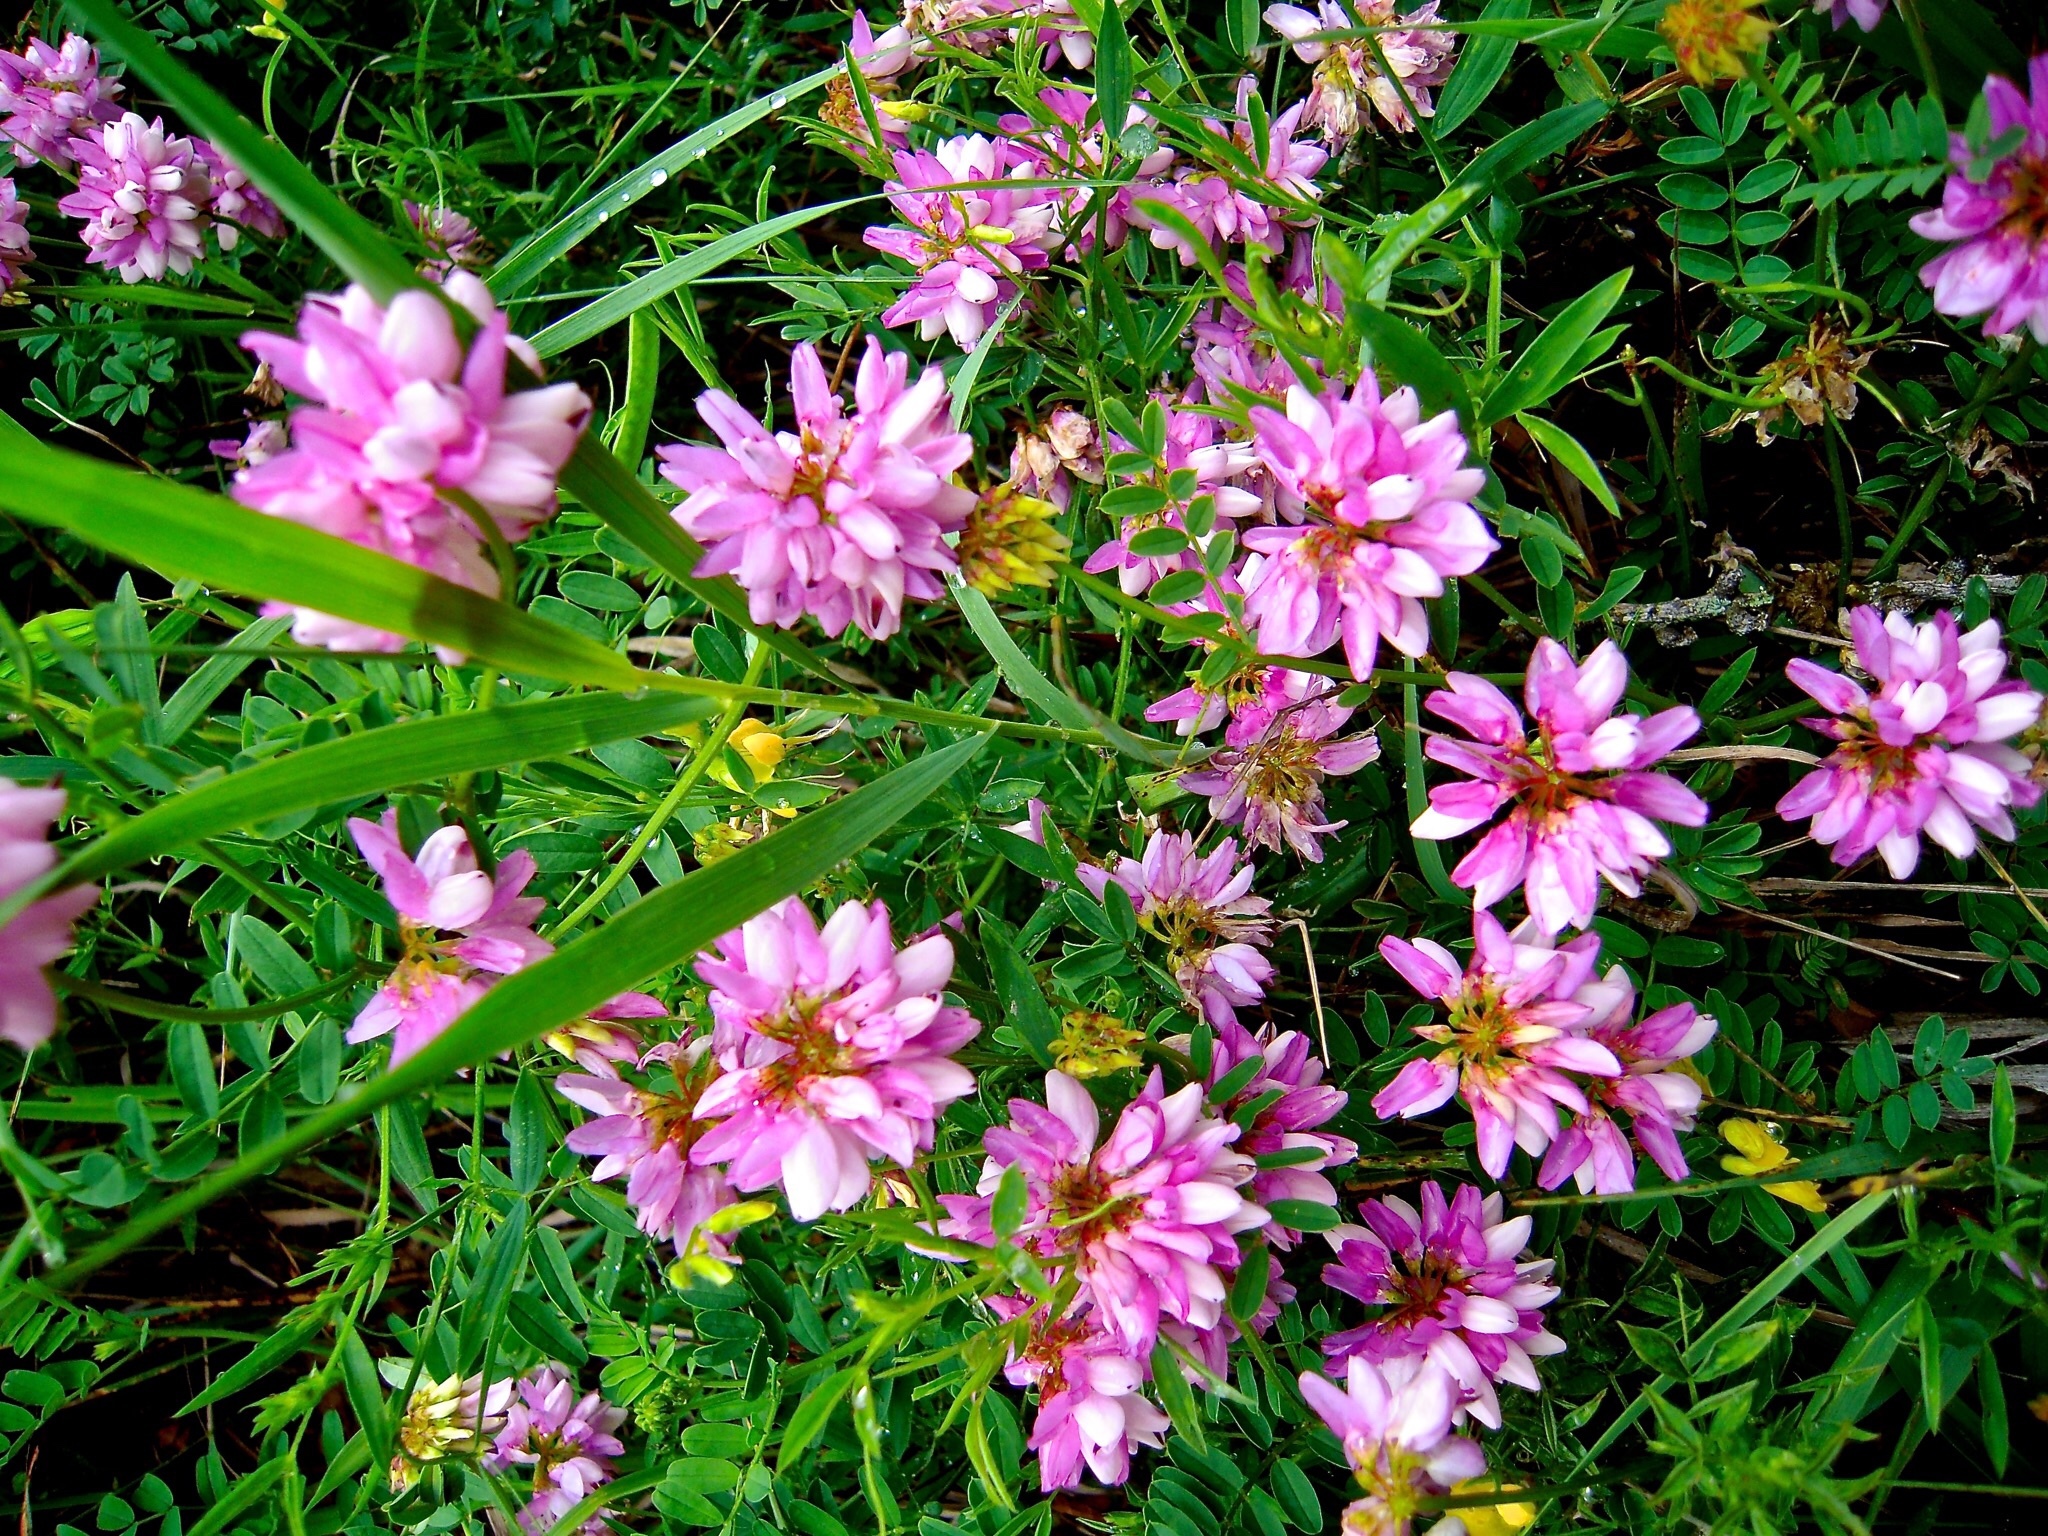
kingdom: Plantae
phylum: Tracheophyta
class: Magnoliopsida
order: Fabales
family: Fabaceae
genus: Coronilla
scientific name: Coronilla varia
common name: Crownvetch
